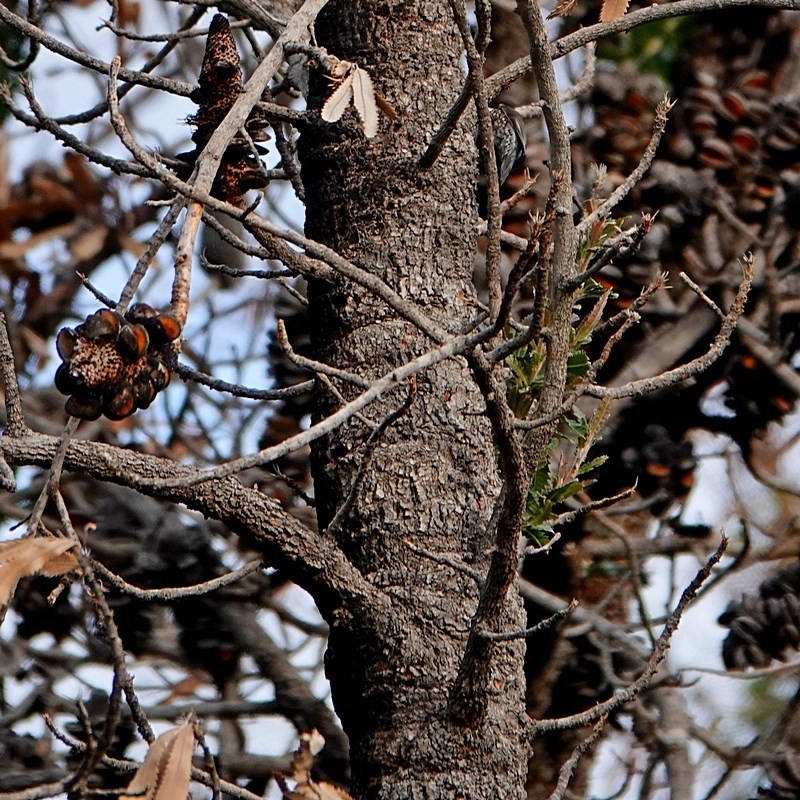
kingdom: Plantae
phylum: Tracheophyta
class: Magnoliopsida
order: Proteales
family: Proteaceae
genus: Banksia
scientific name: Banksia serrata
